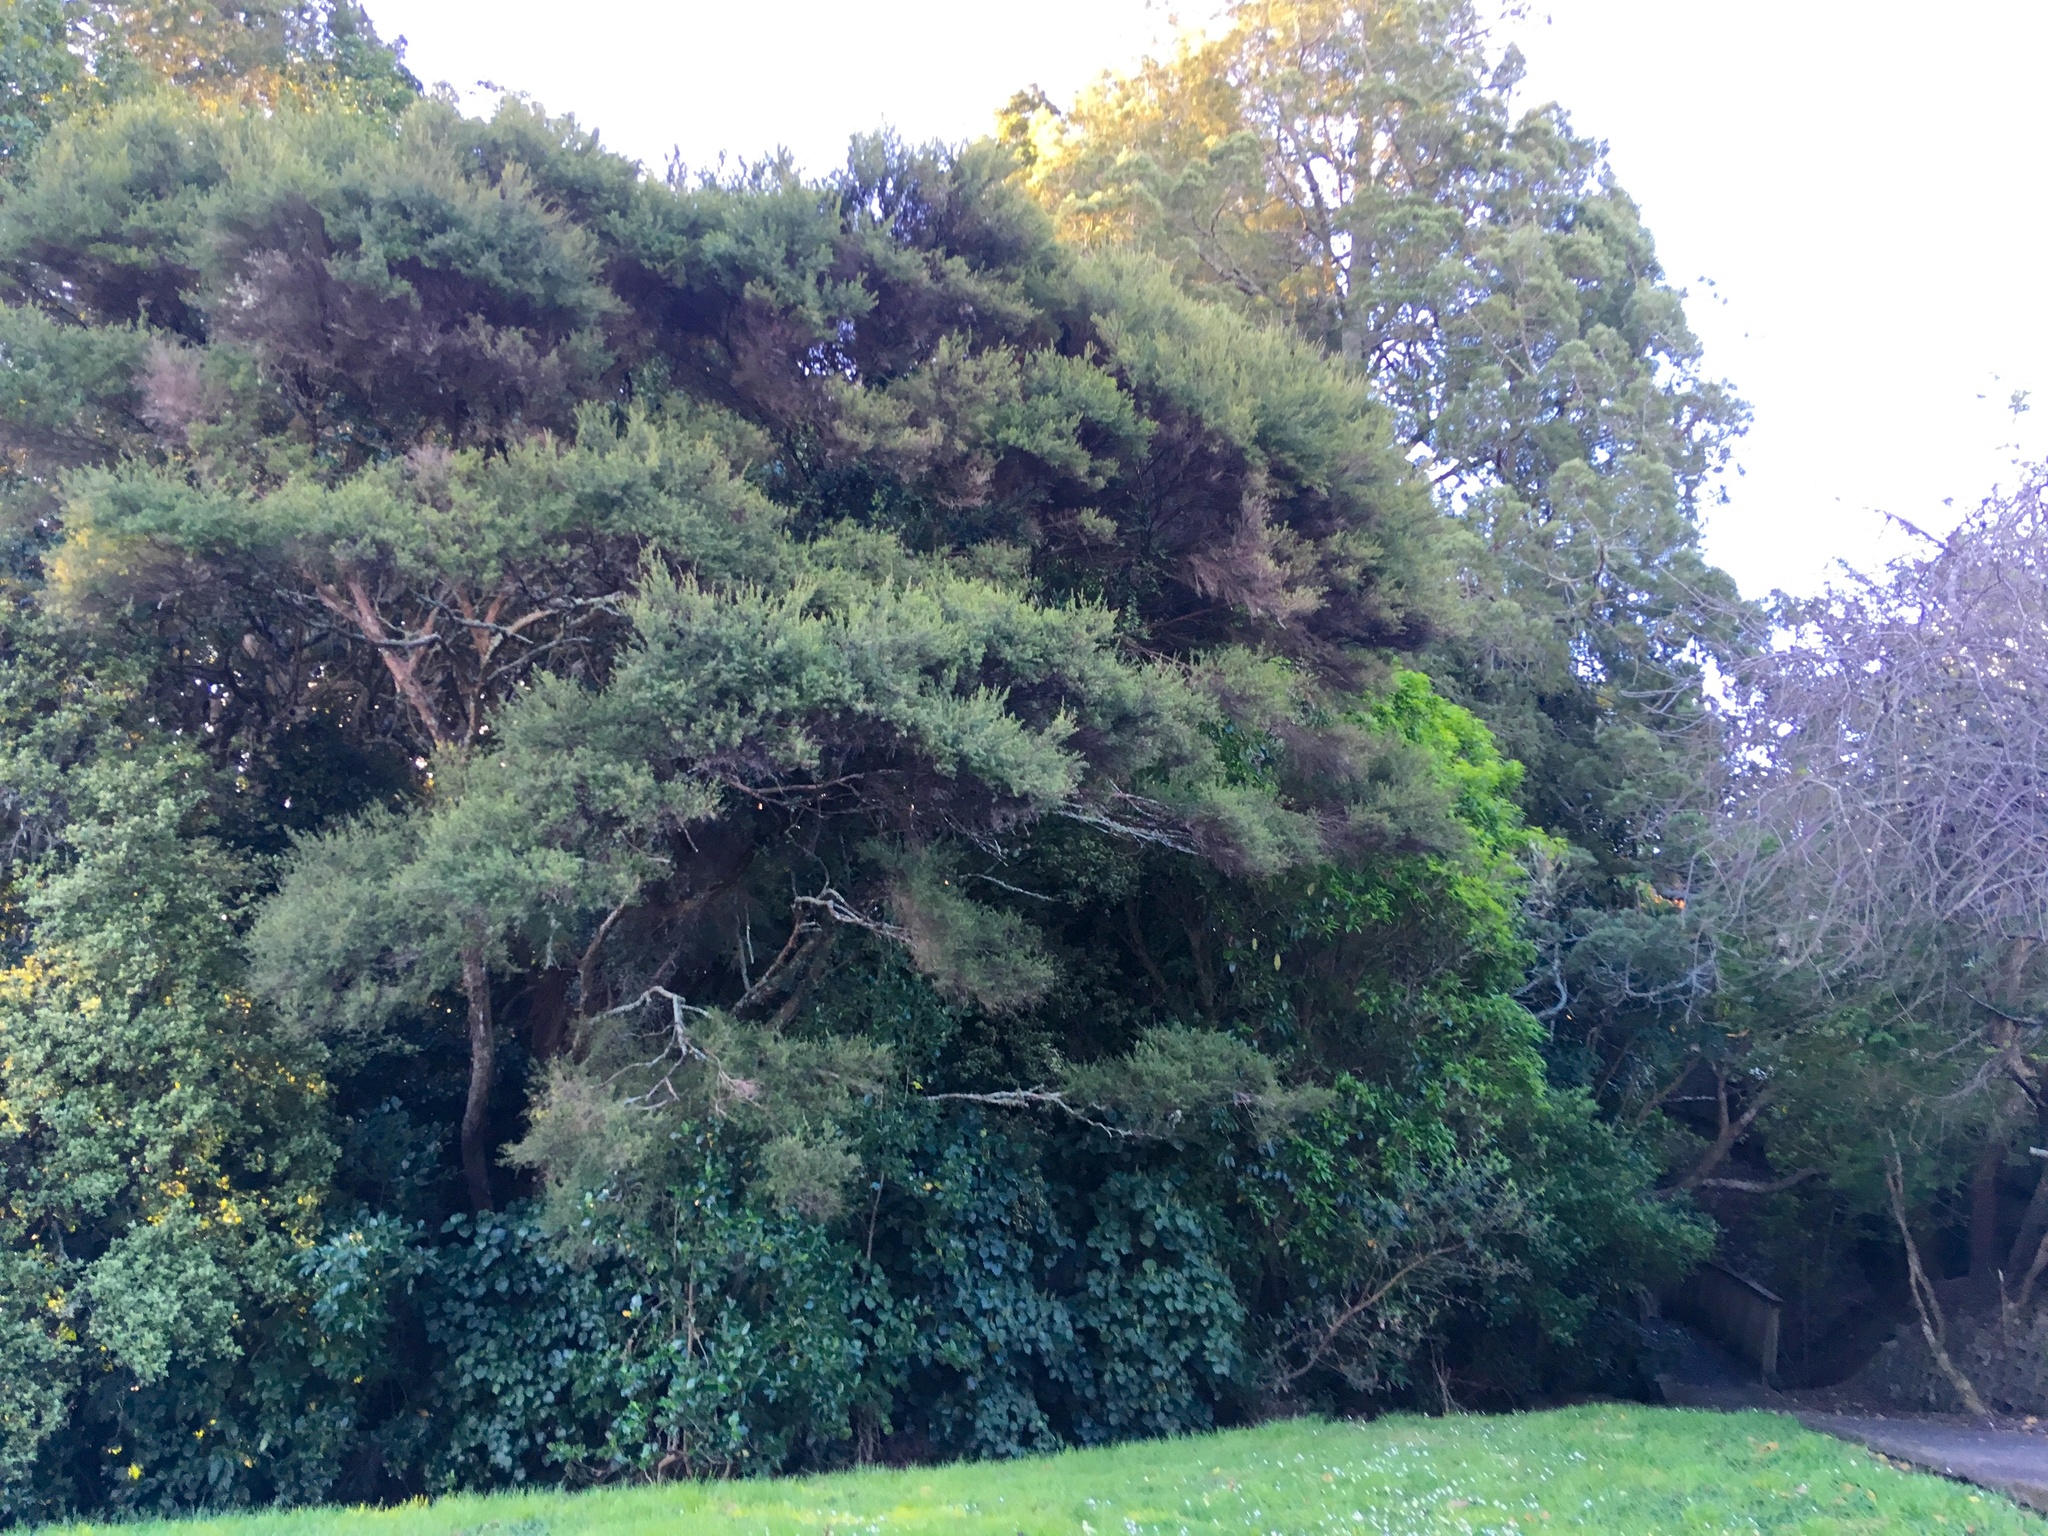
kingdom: Plantae
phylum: Tracheophyta
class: Magnoliopsida
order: Myrtales
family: Myrtaceae
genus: Kunzea
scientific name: Kunzea robusta
